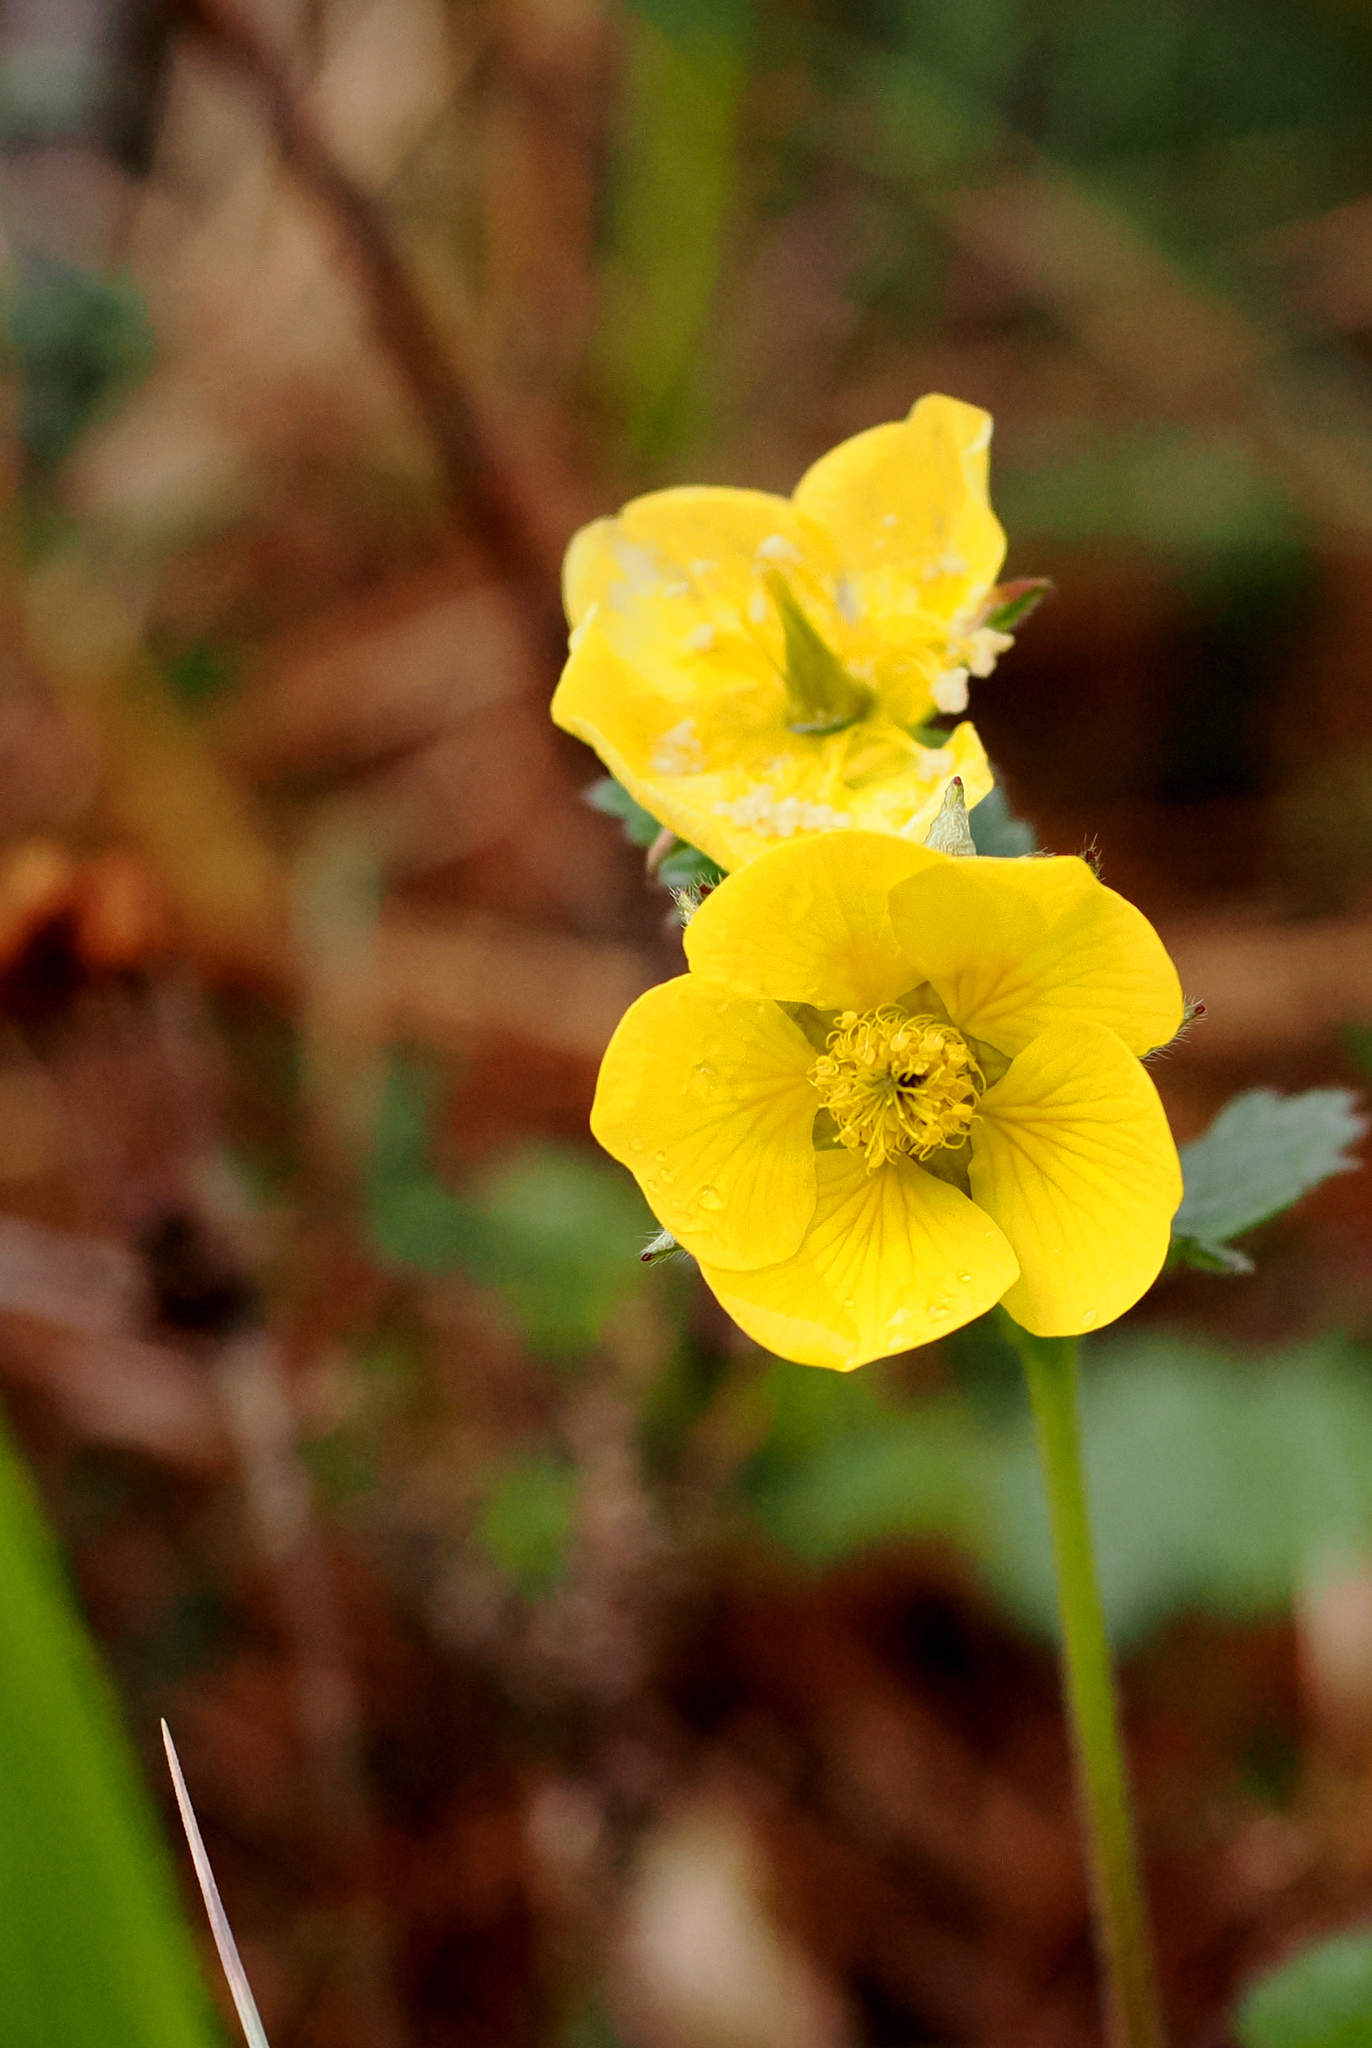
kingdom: Plantae
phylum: Tracheophyta
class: Magnoliopsida
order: Rosales
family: Rosaceae
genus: Geum
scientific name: Geum calthifolium
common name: Caltha-leaved avens
